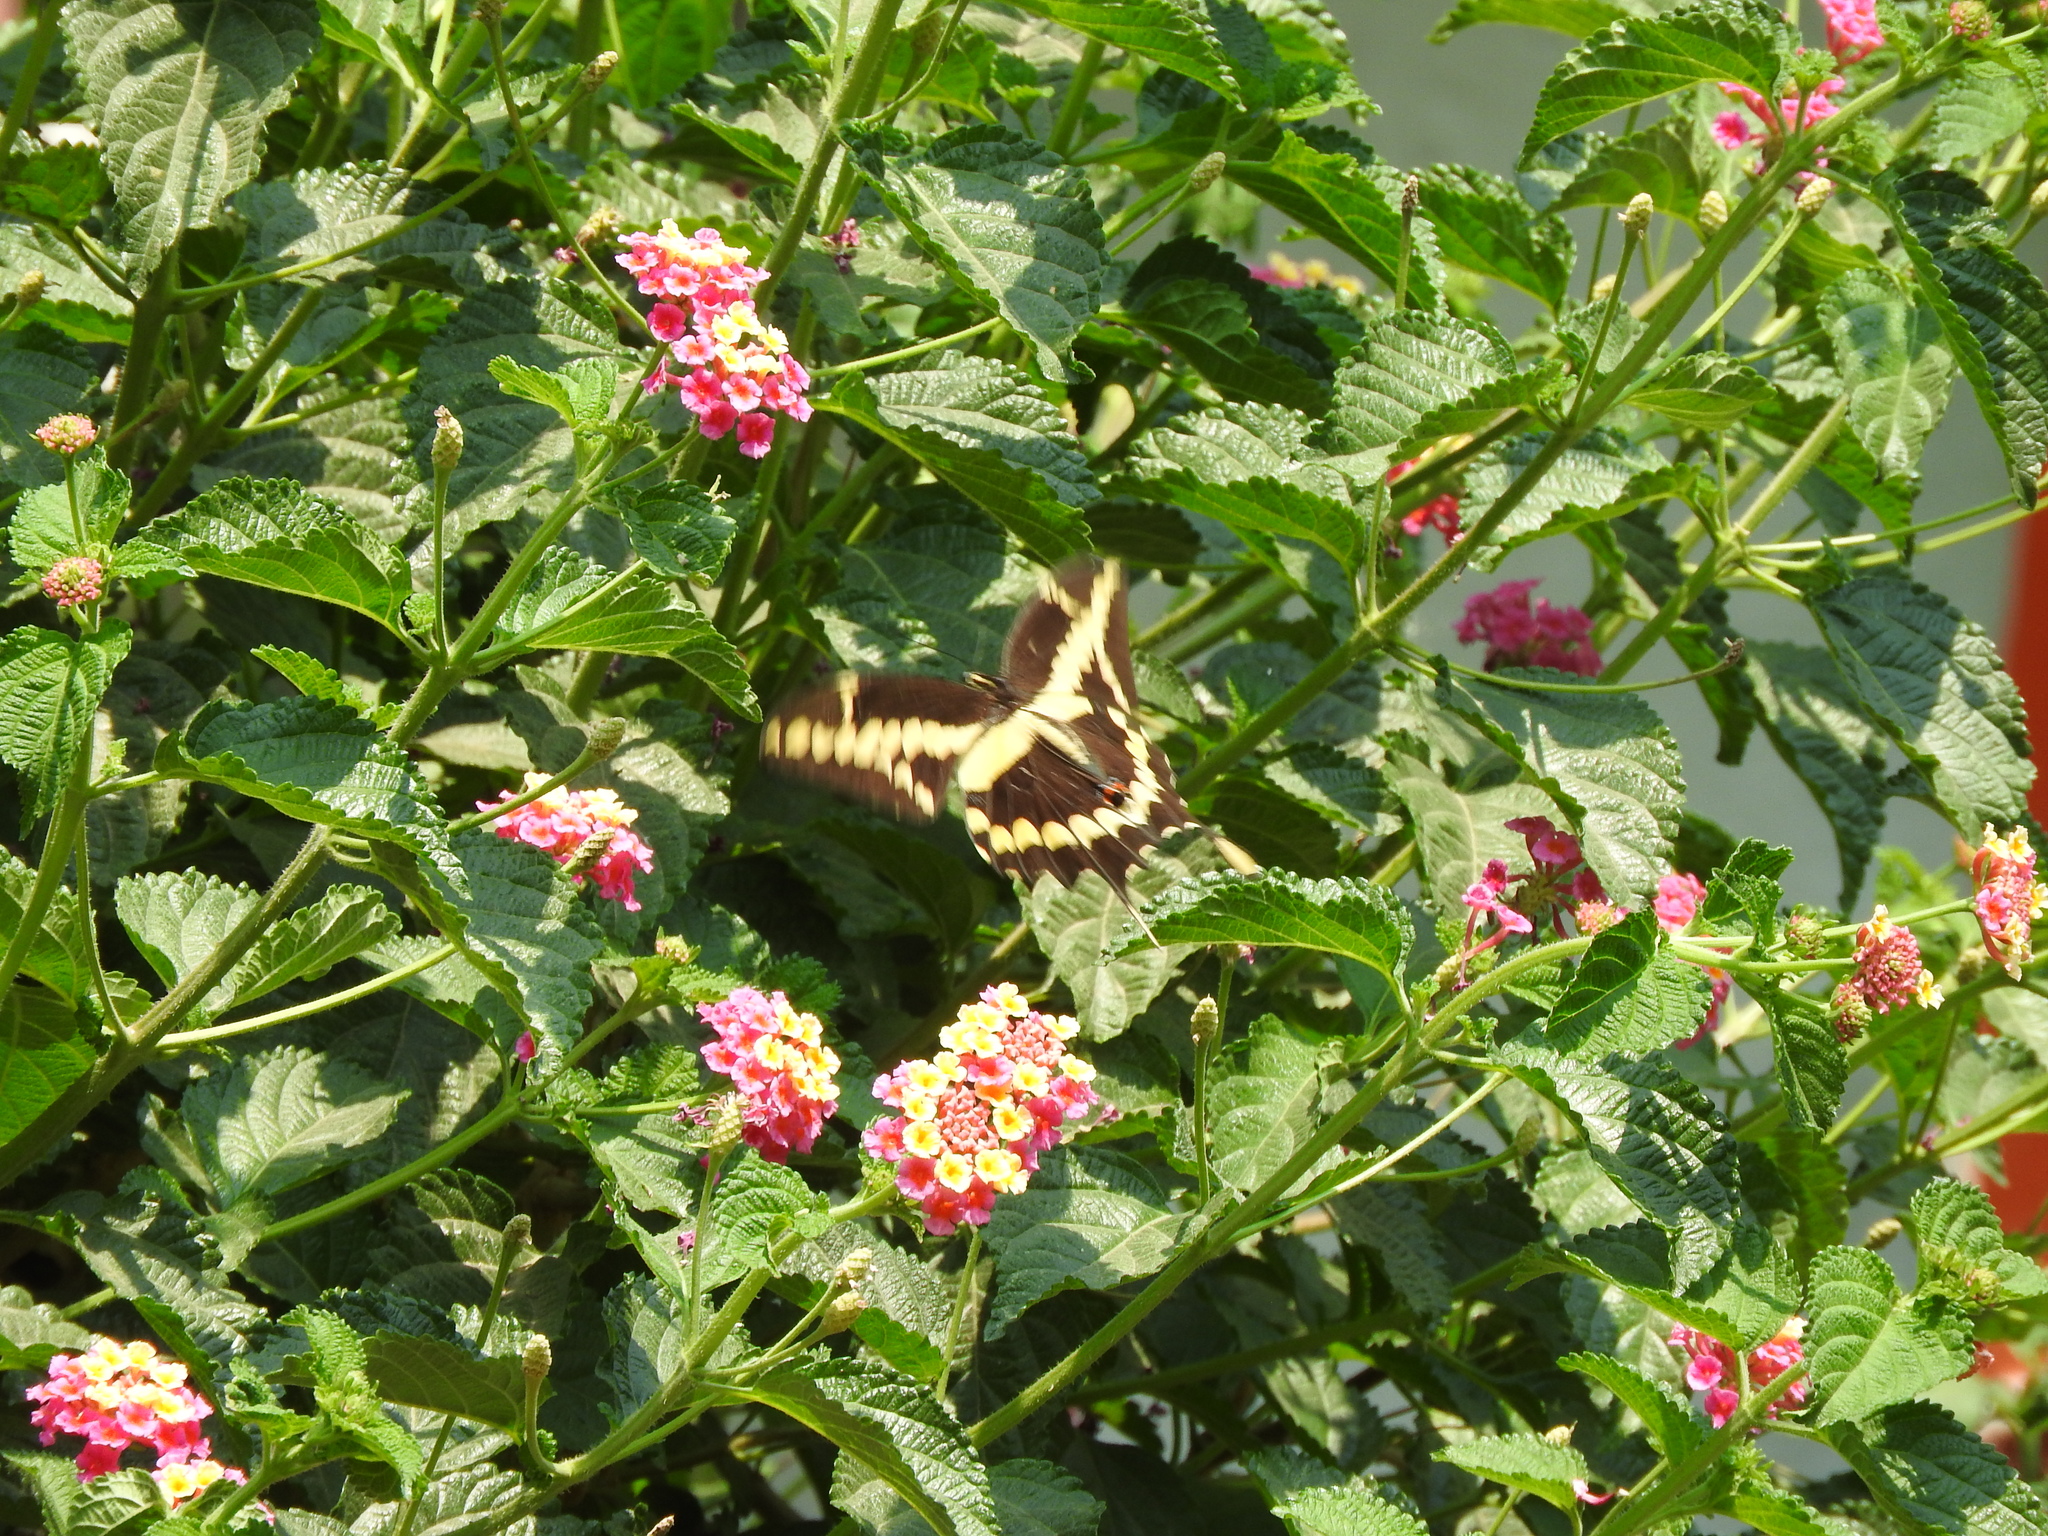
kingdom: Animalia
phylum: Arthropoda
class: Insecta
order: Lepidoptera
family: Papilionidae
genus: Papilio
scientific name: Papilio rumiko
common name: Western giant swallowtail
